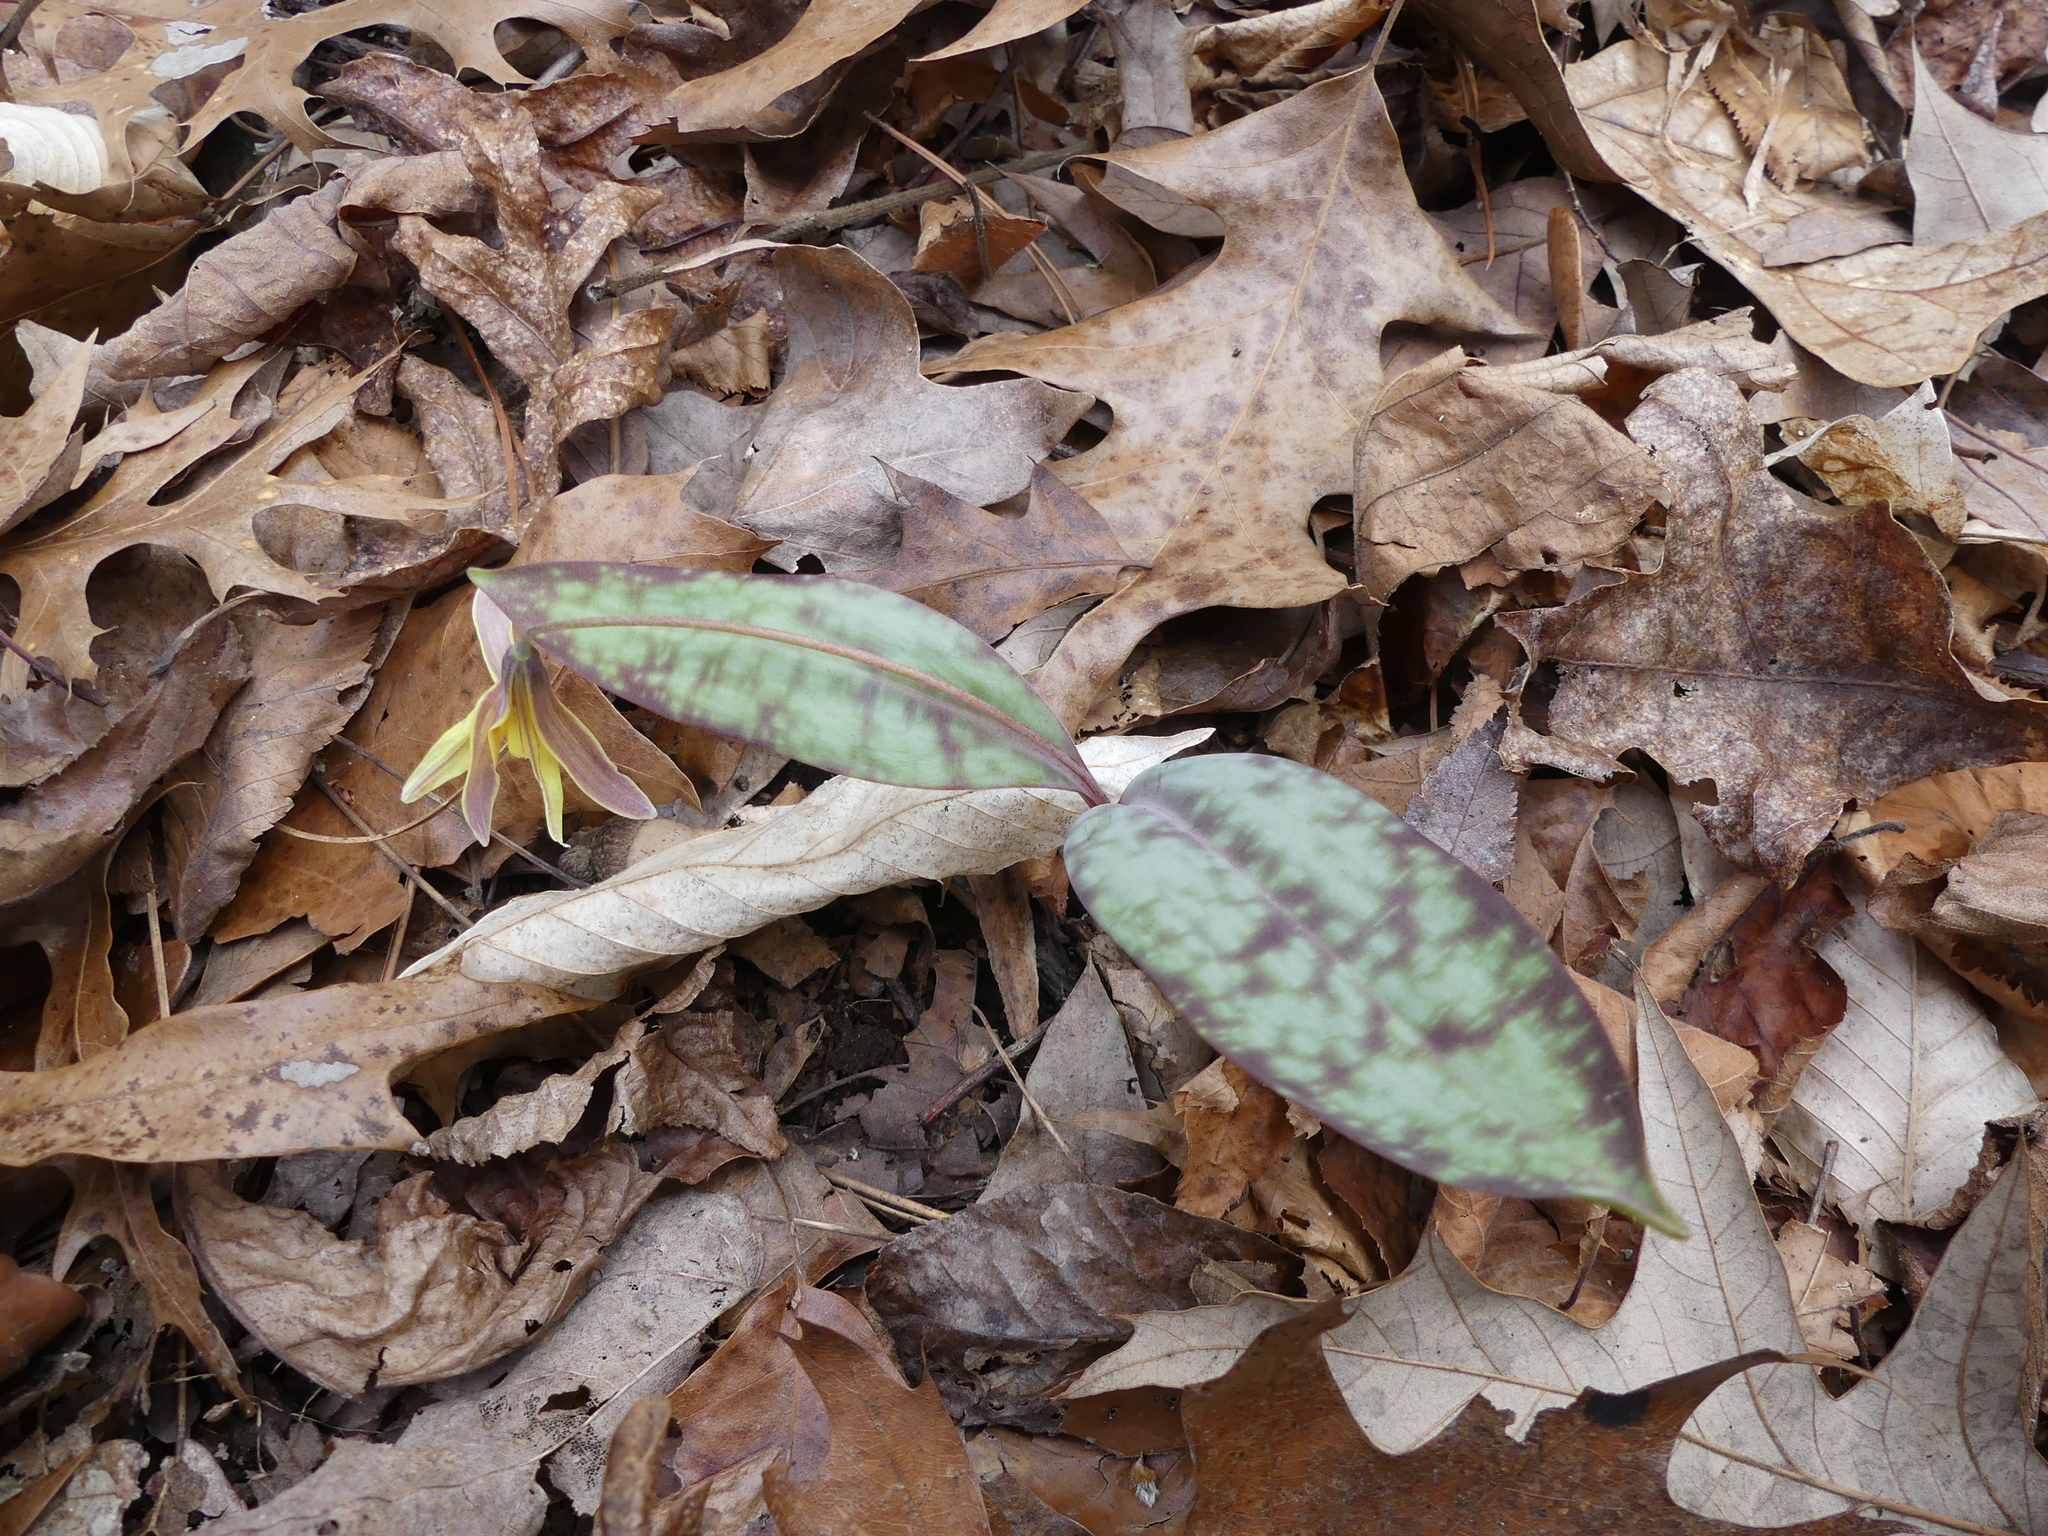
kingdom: Plantae
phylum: Tracheophyta
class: Liliopsida
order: Liliales
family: Liliaceae
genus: Erythronium
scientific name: Erythronium umbilicatum
